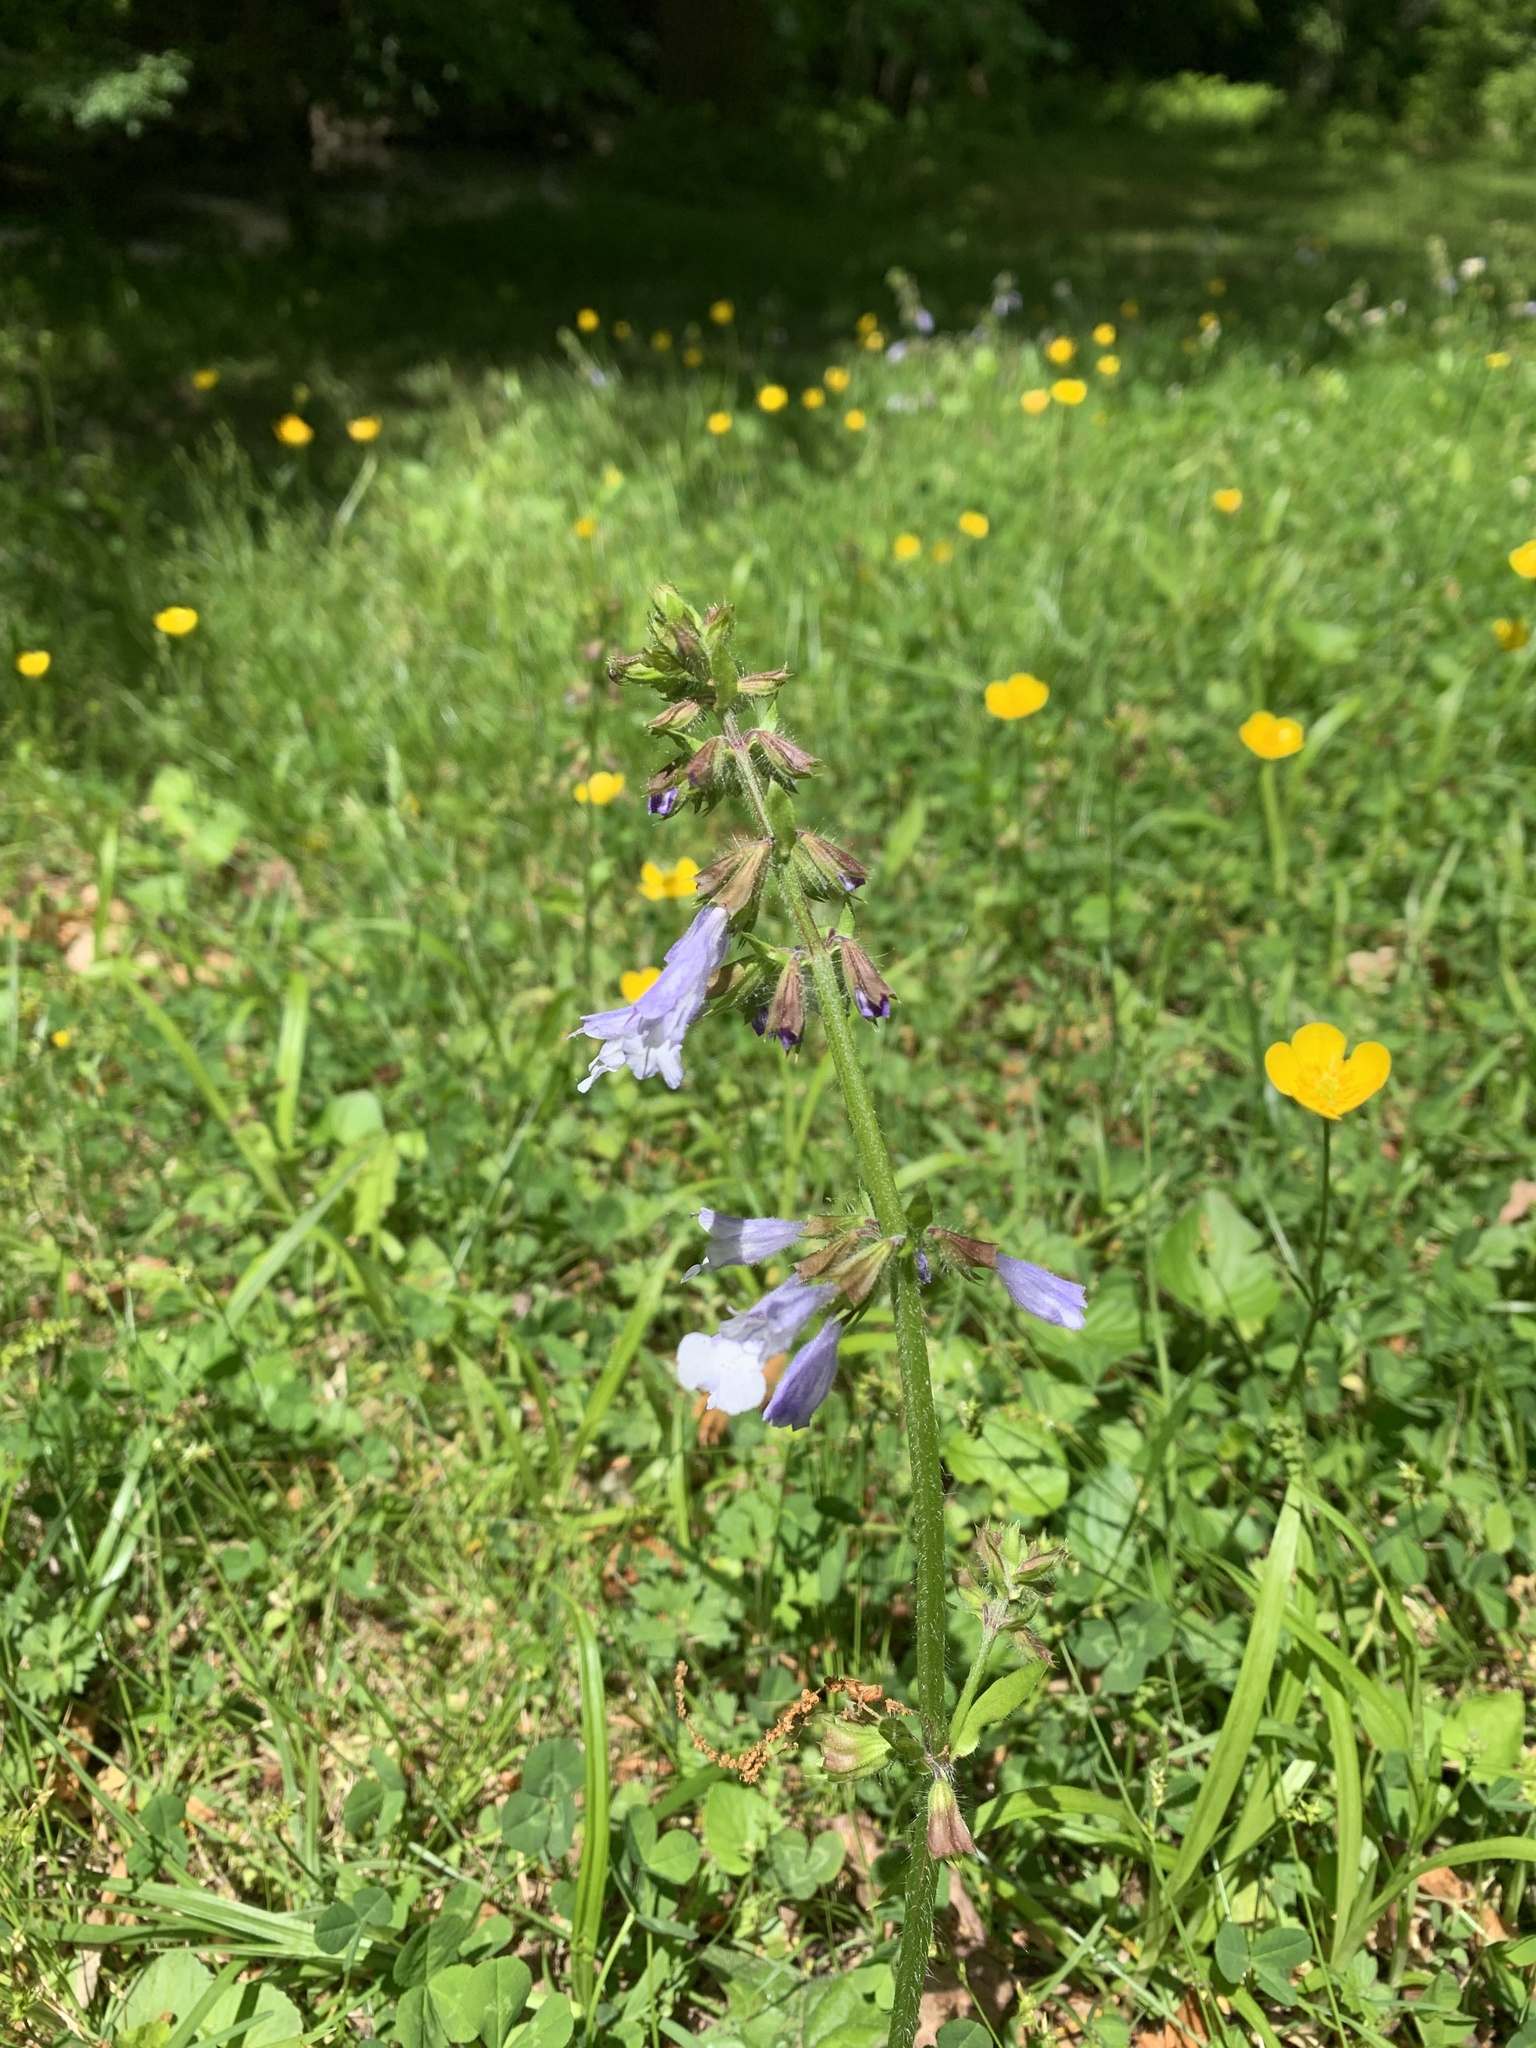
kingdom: Plantae
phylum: Tracheophyta
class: Magnoliopsida
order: Lamiales
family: Lamiaceae
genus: Salvia
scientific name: Salvia lyrata
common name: Cancerweed
